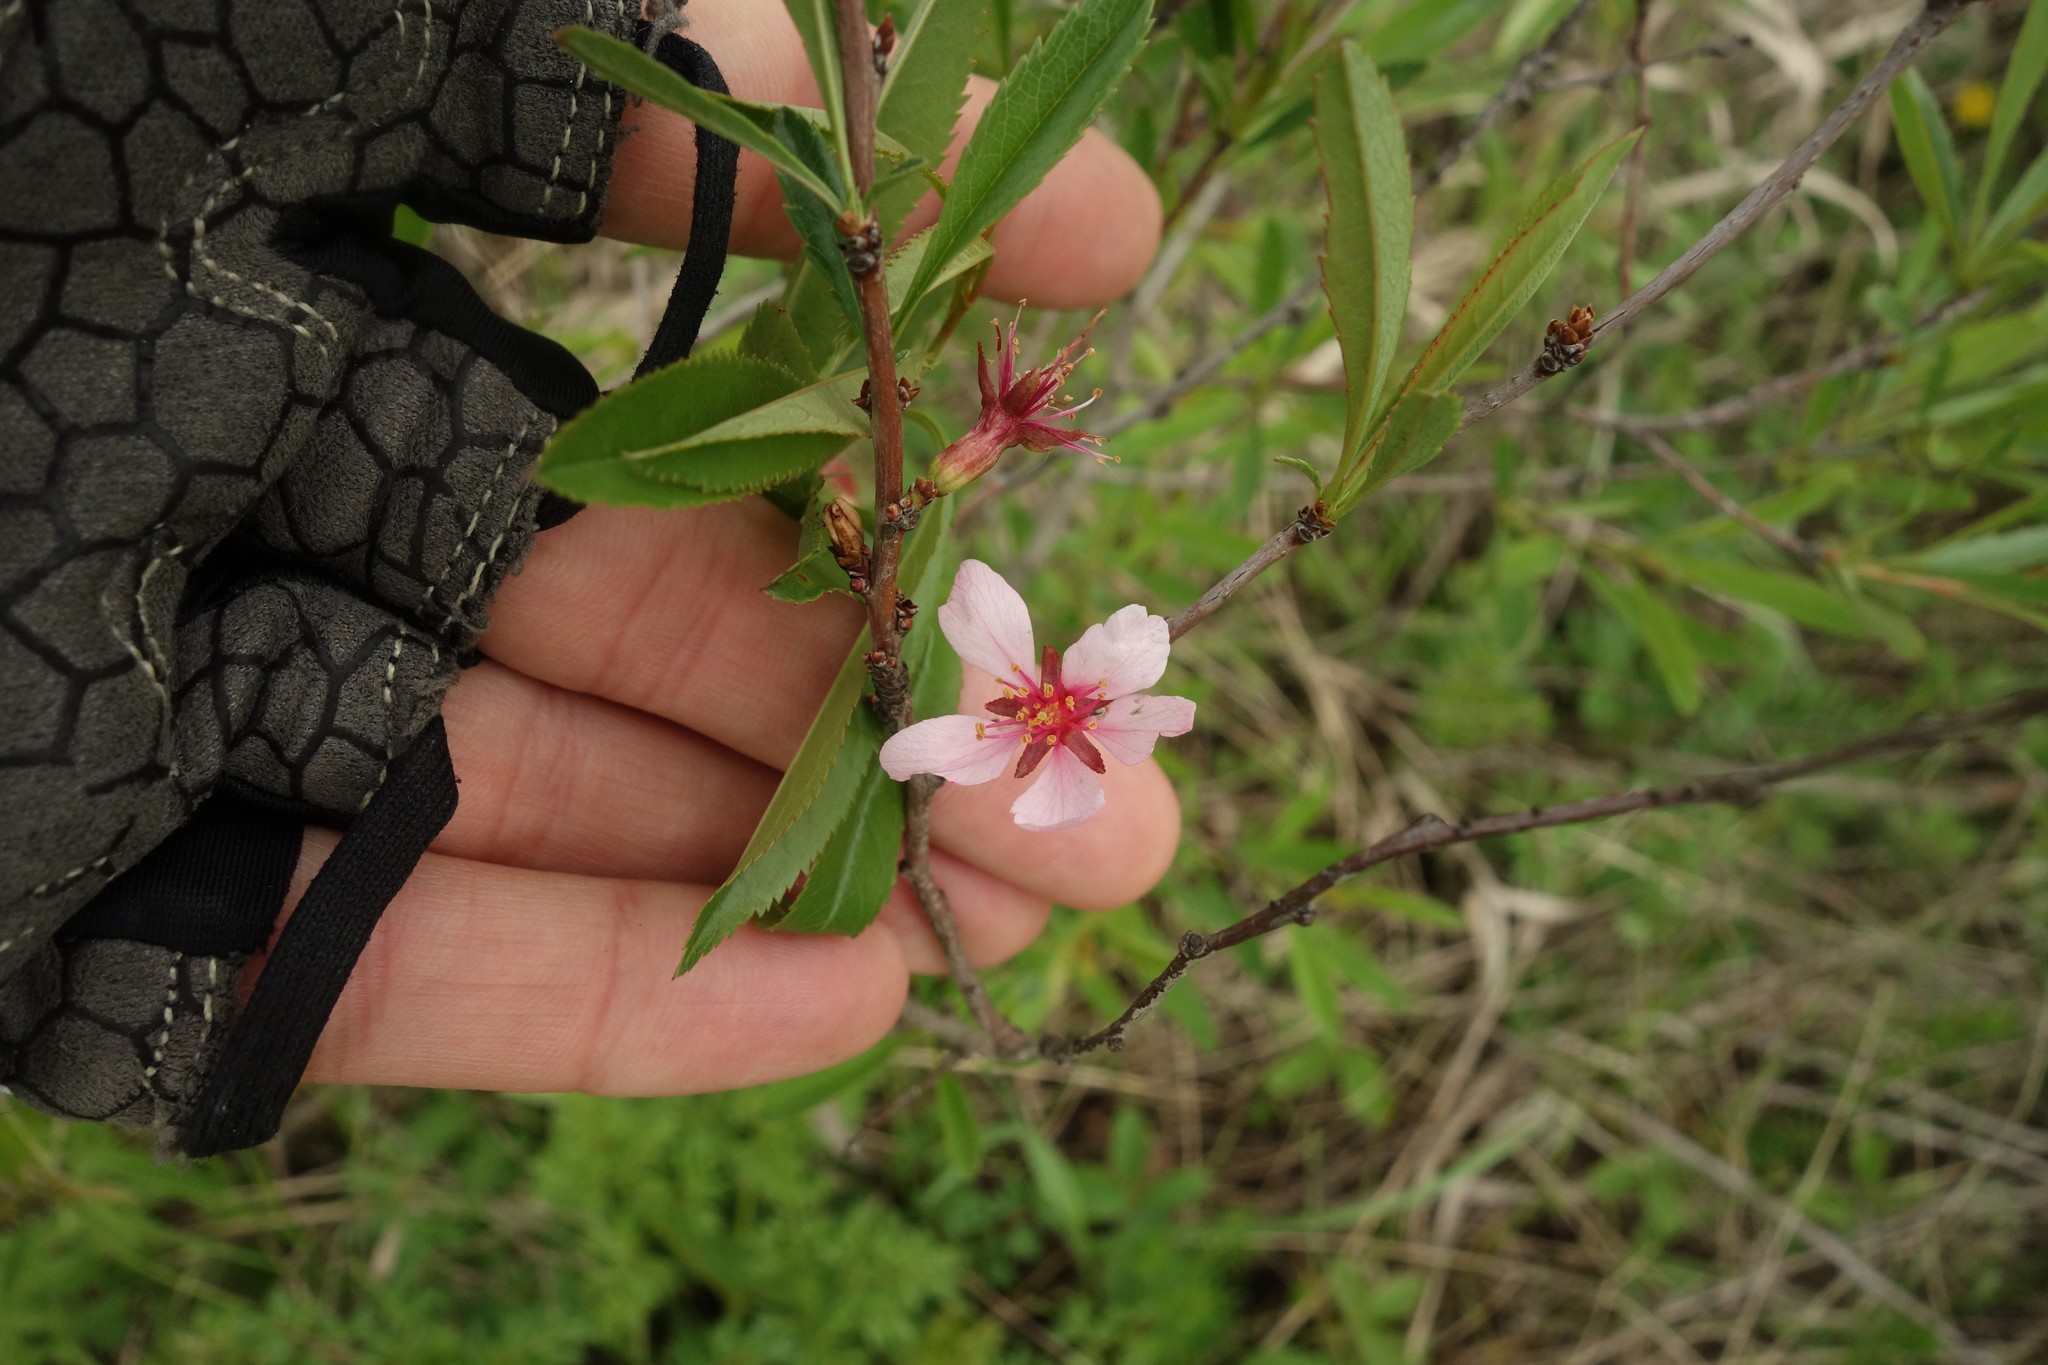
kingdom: Plantae
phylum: Tracheophyta
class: Magnoliopsida
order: Rosales
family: Rosaceae
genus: Prunus
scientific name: Prunus tenella
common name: Dwarf russian almond
